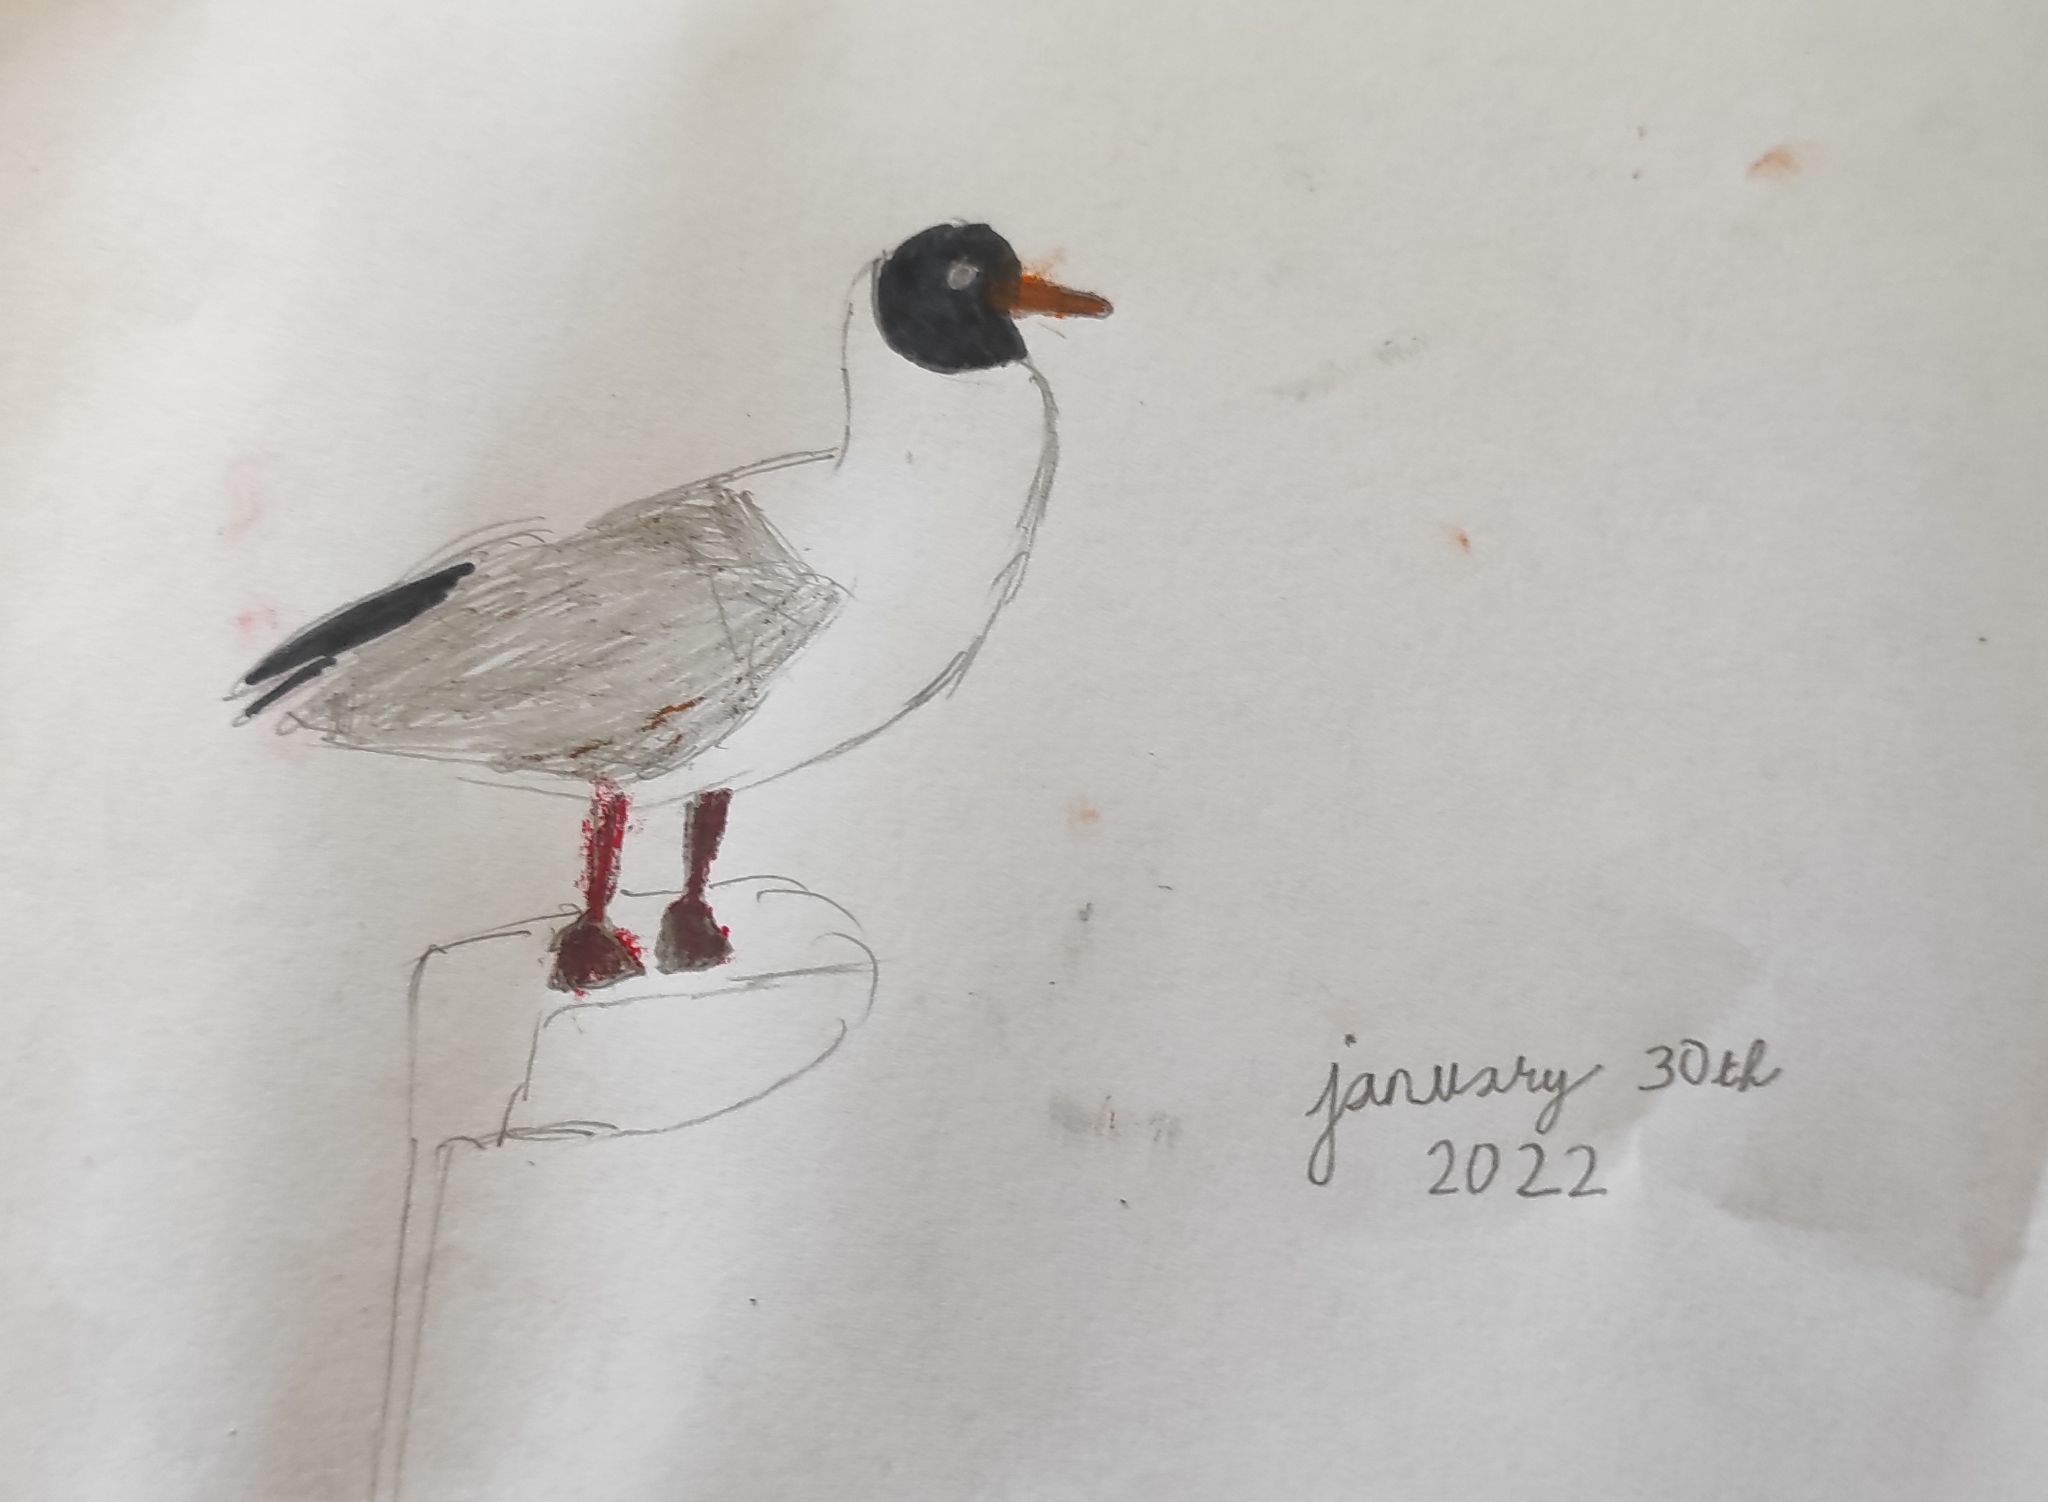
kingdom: Animalia
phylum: Chordata
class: Aves
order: Charadriiformes
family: Laridae
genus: Chroicocephalus
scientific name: Chroicocephalus ridibundus
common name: Black-headed gull
